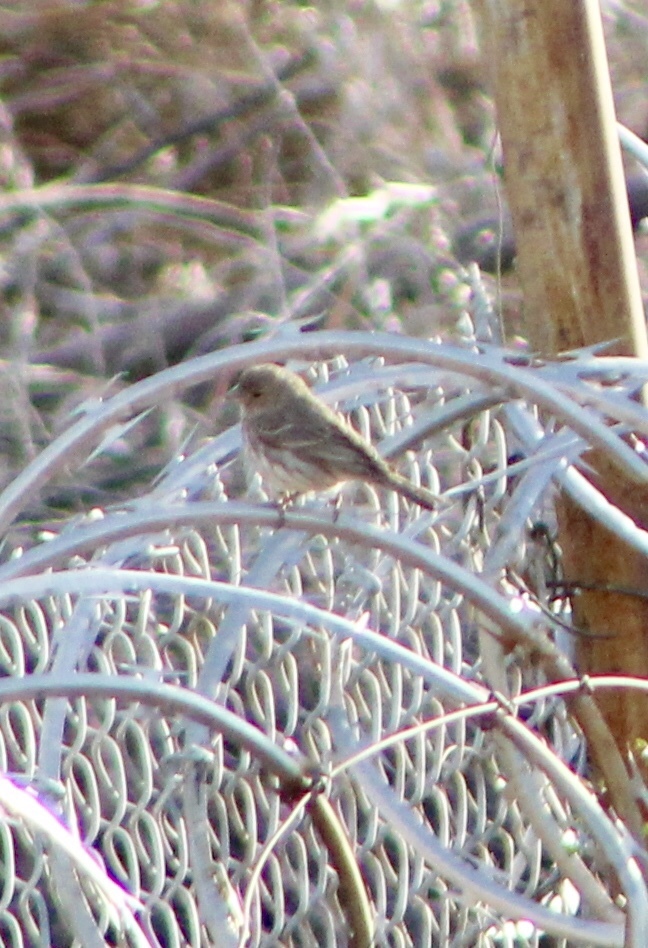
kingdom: Animalia
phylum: Chordata
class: Aves
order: Passeriformes
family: Fringillidae
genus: Haemorhous
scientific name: Haemorhous mexicanus
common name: House finch
